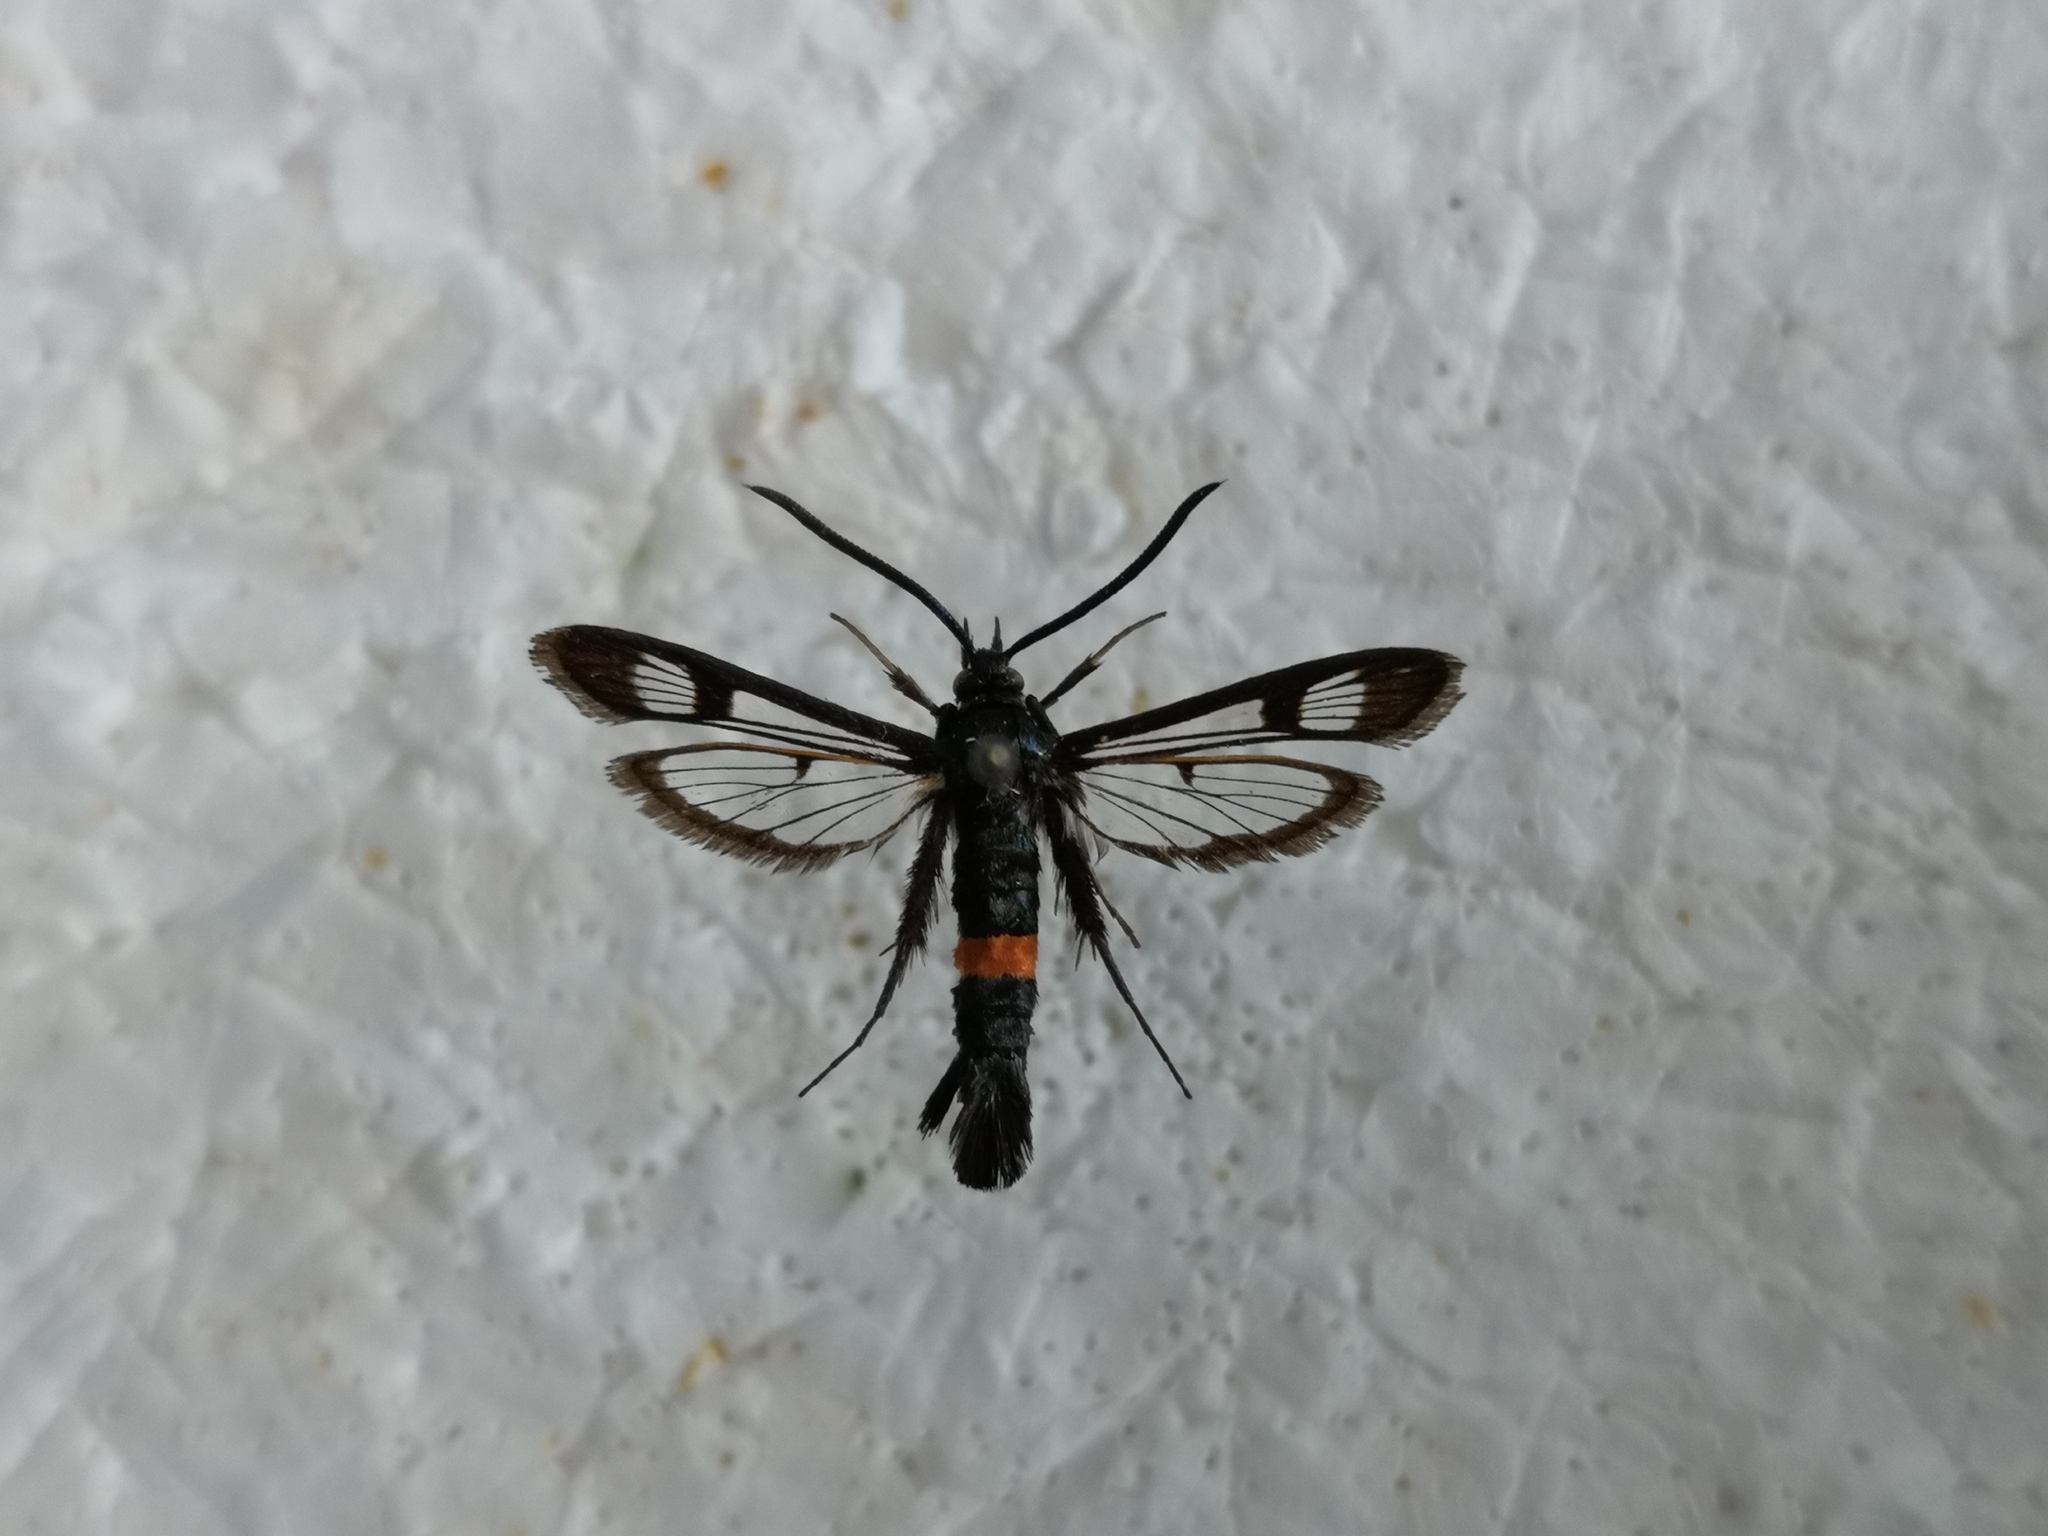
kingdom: Animalia
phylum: Arthropoda
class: Insecta
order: Lepidoptera
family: Sesiidae
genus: Synanthedon
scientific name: Synanthedon myopaeformis
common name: Red-belted clearwing
